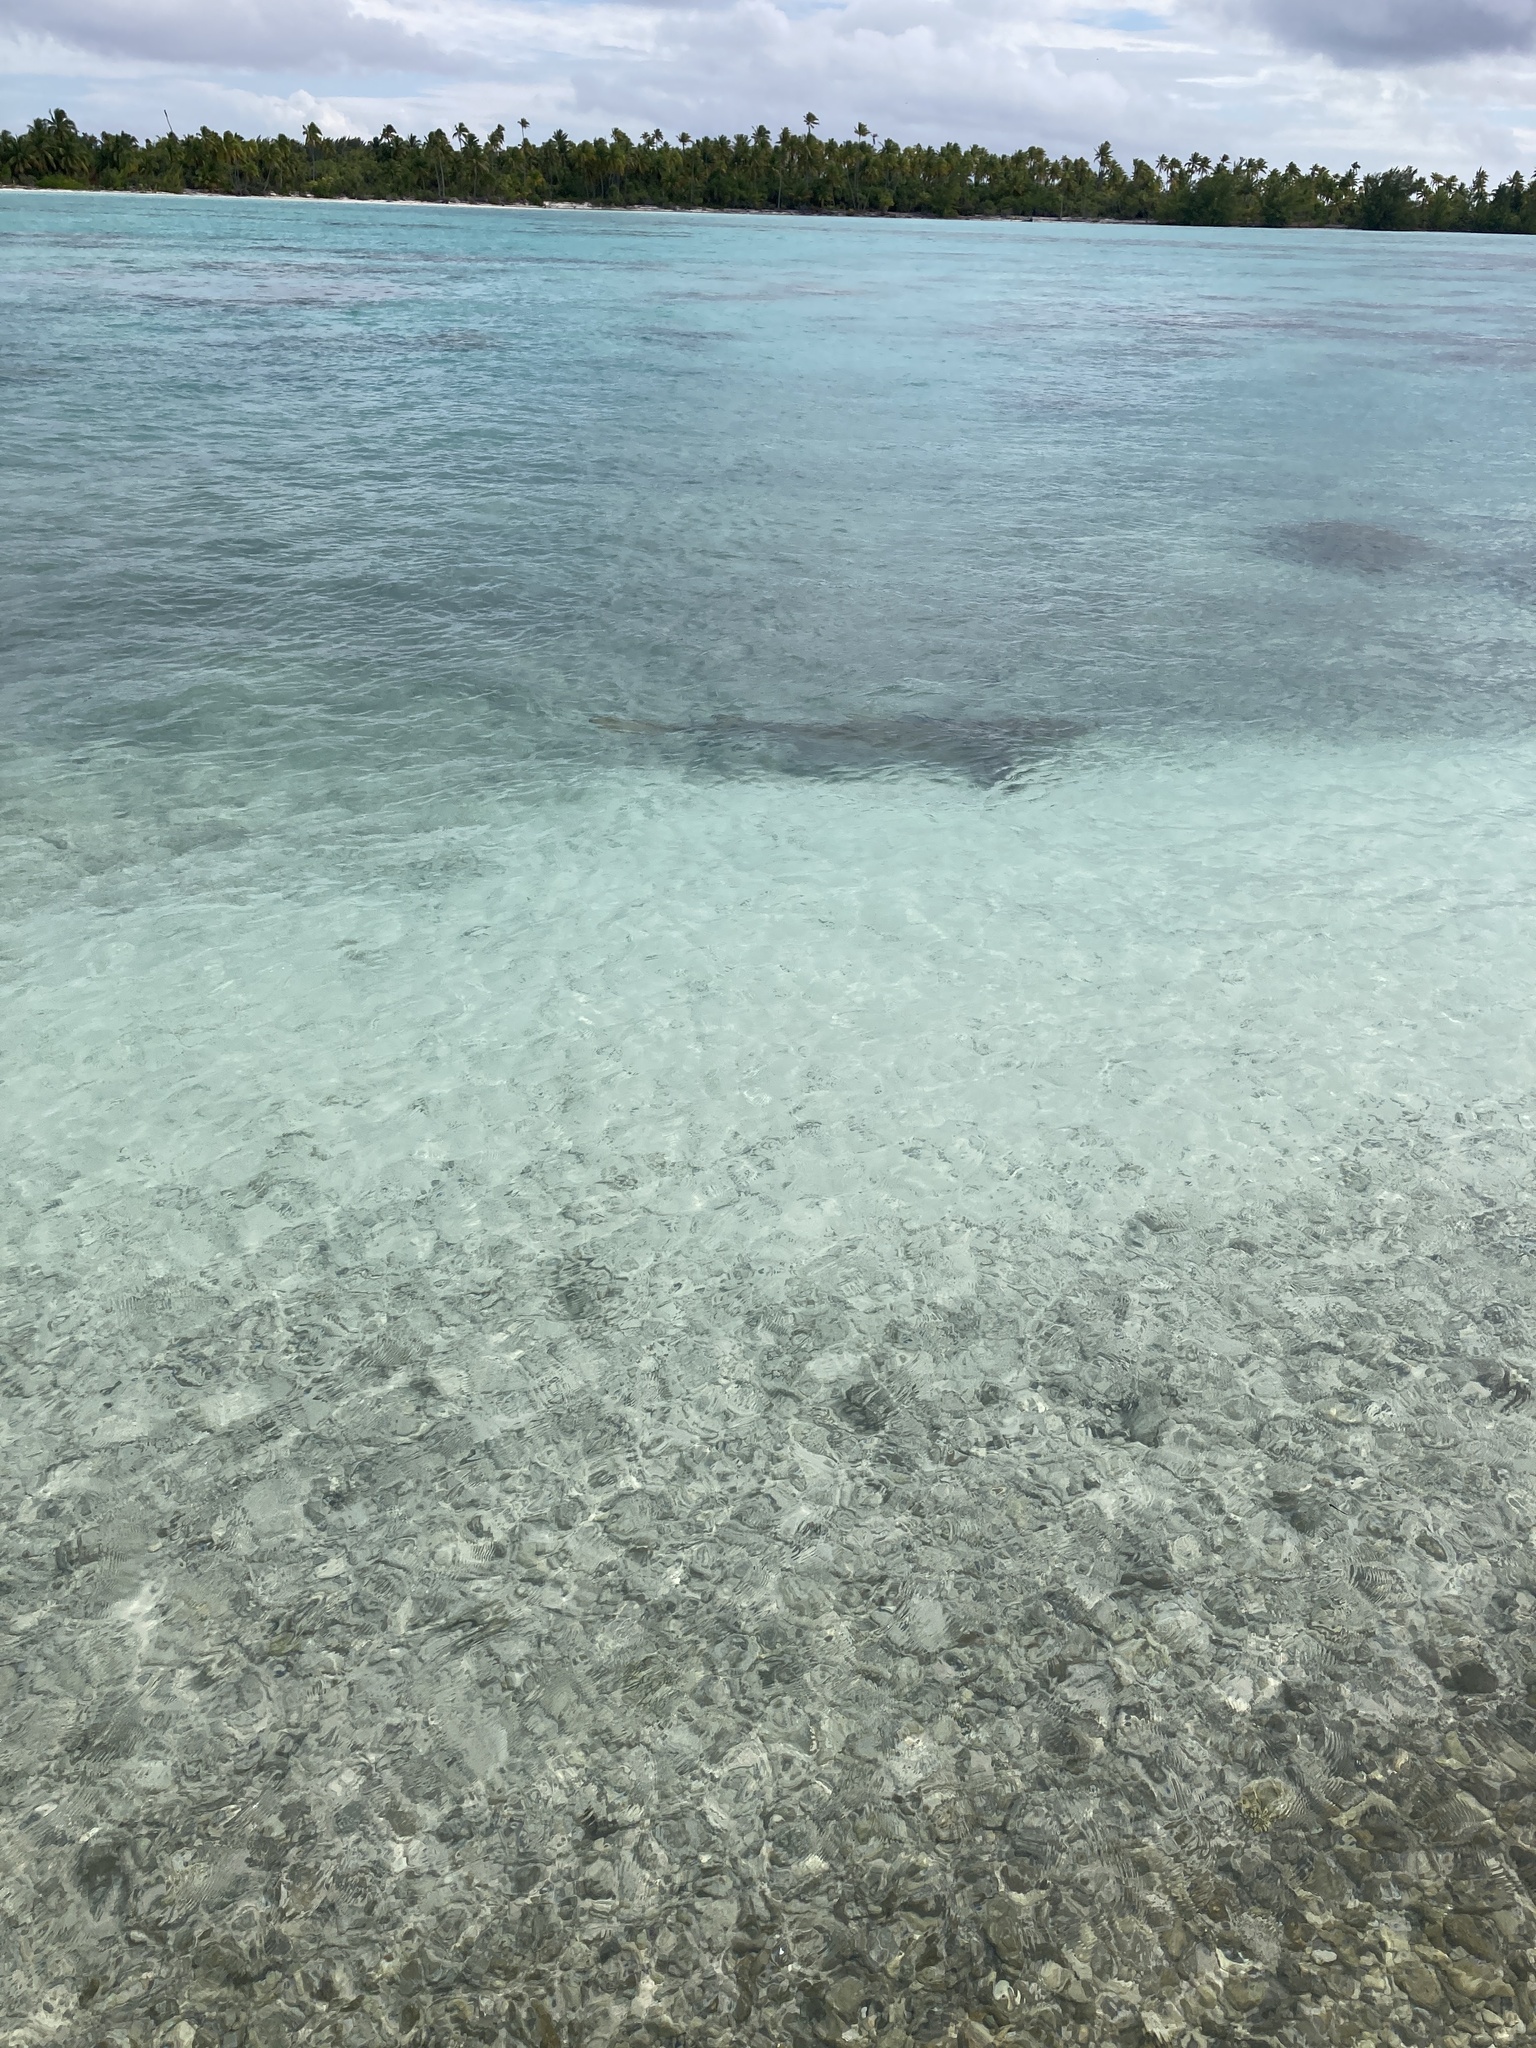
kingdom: Animalia
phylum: Chordata
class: Elasmobranchii
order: Carcharhiniformes
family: Carcharhinidae
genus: Negaprion
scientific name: Negaprion acutidens
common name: Lemon shark
